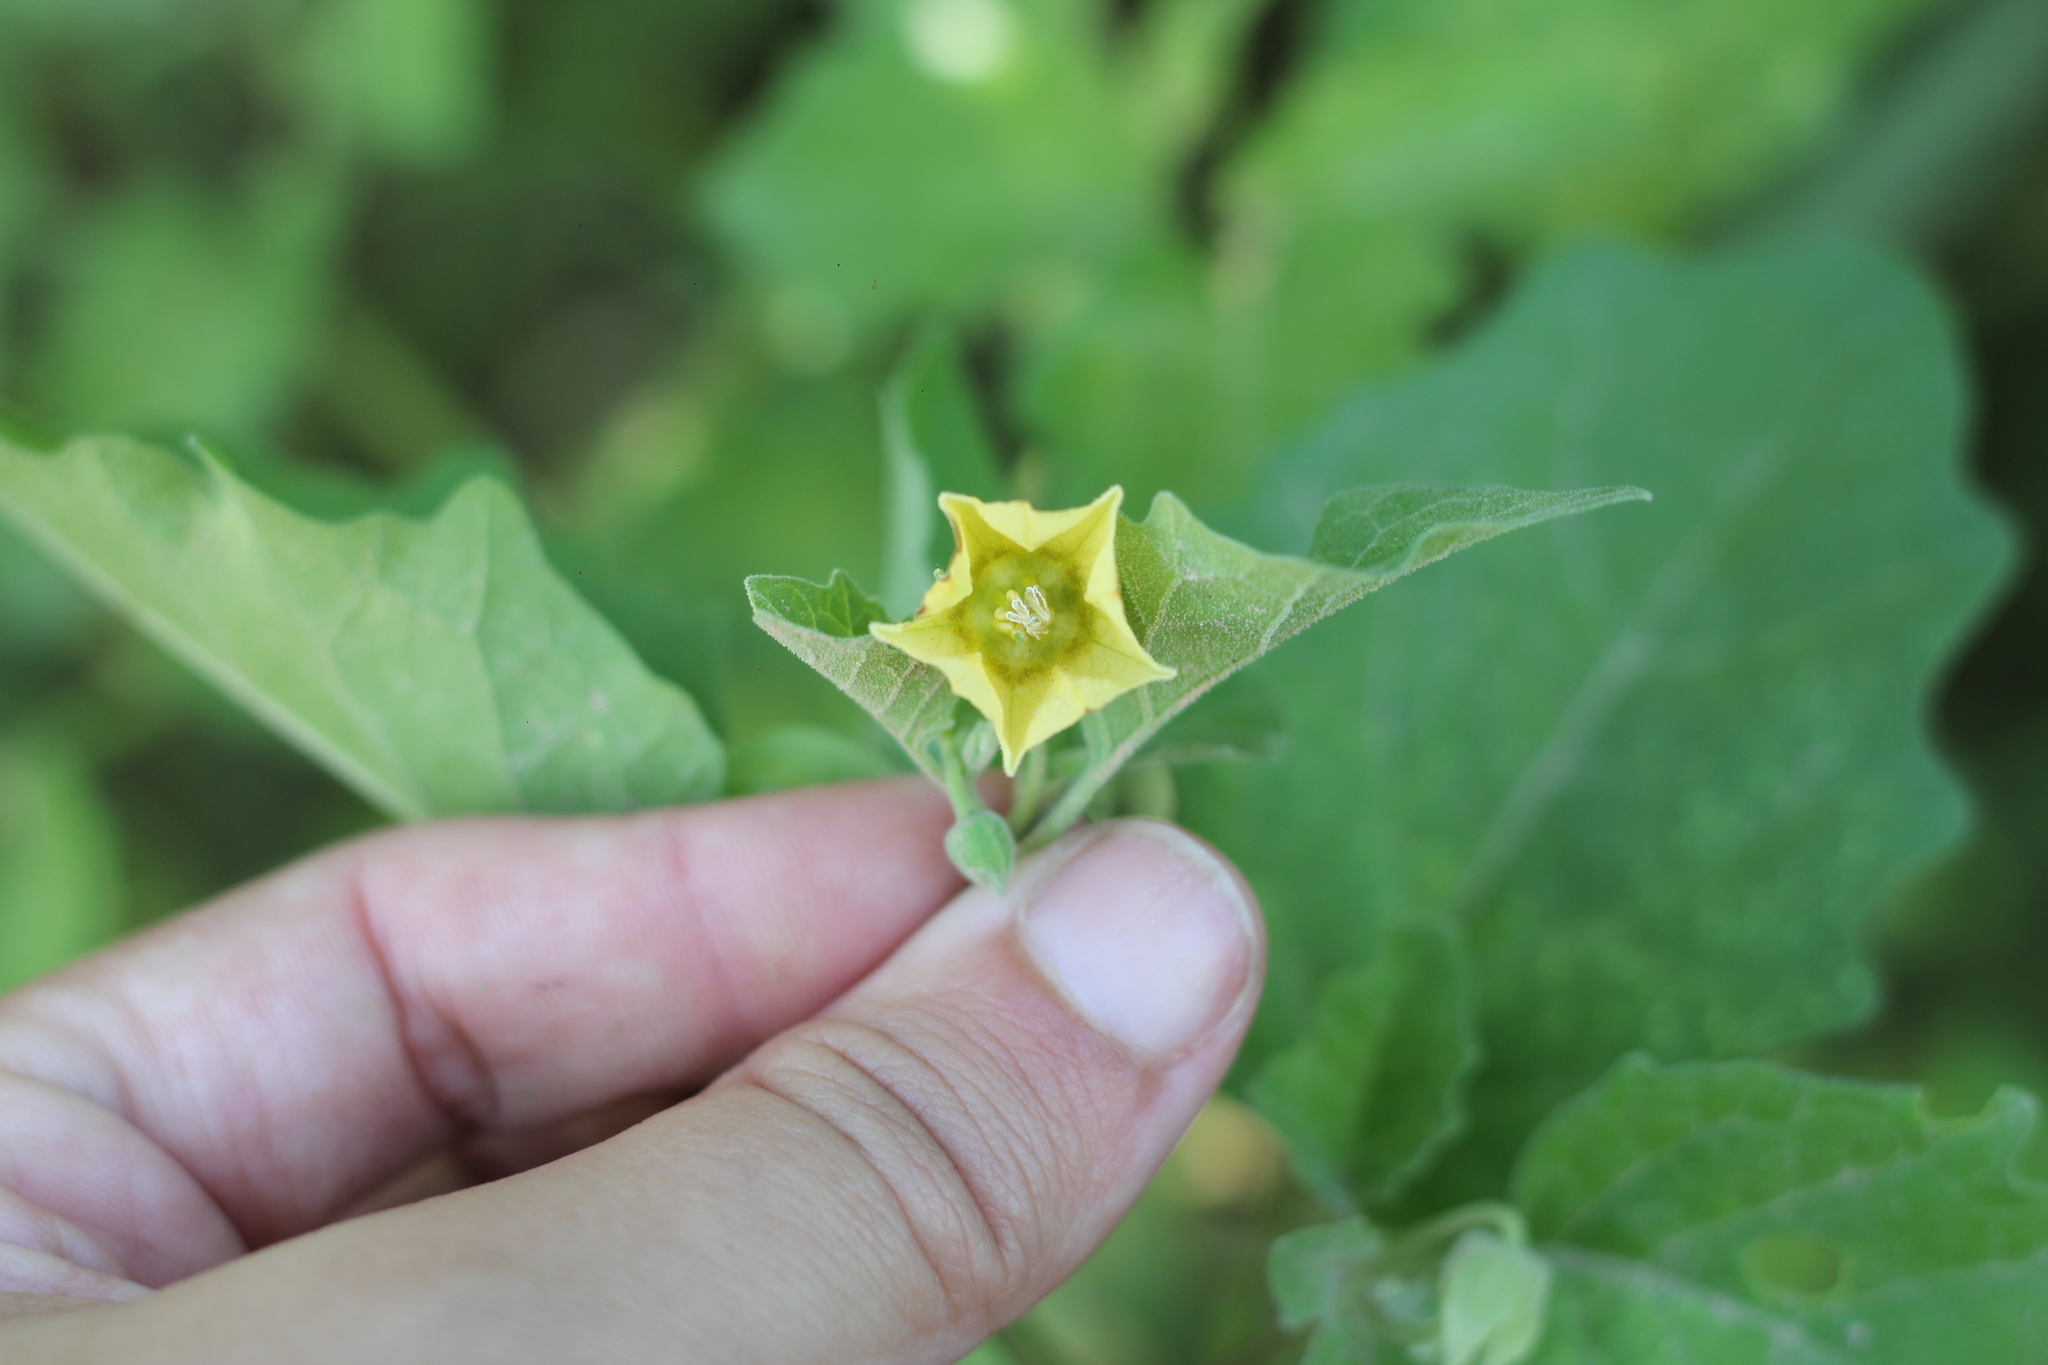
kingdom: Plantae
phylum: Tracheophyta
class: Magnoliopsida
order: Solanales
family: Solanaceae
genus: Physalis
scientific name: Physalis viscosa
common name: Stellate ground-cherry
